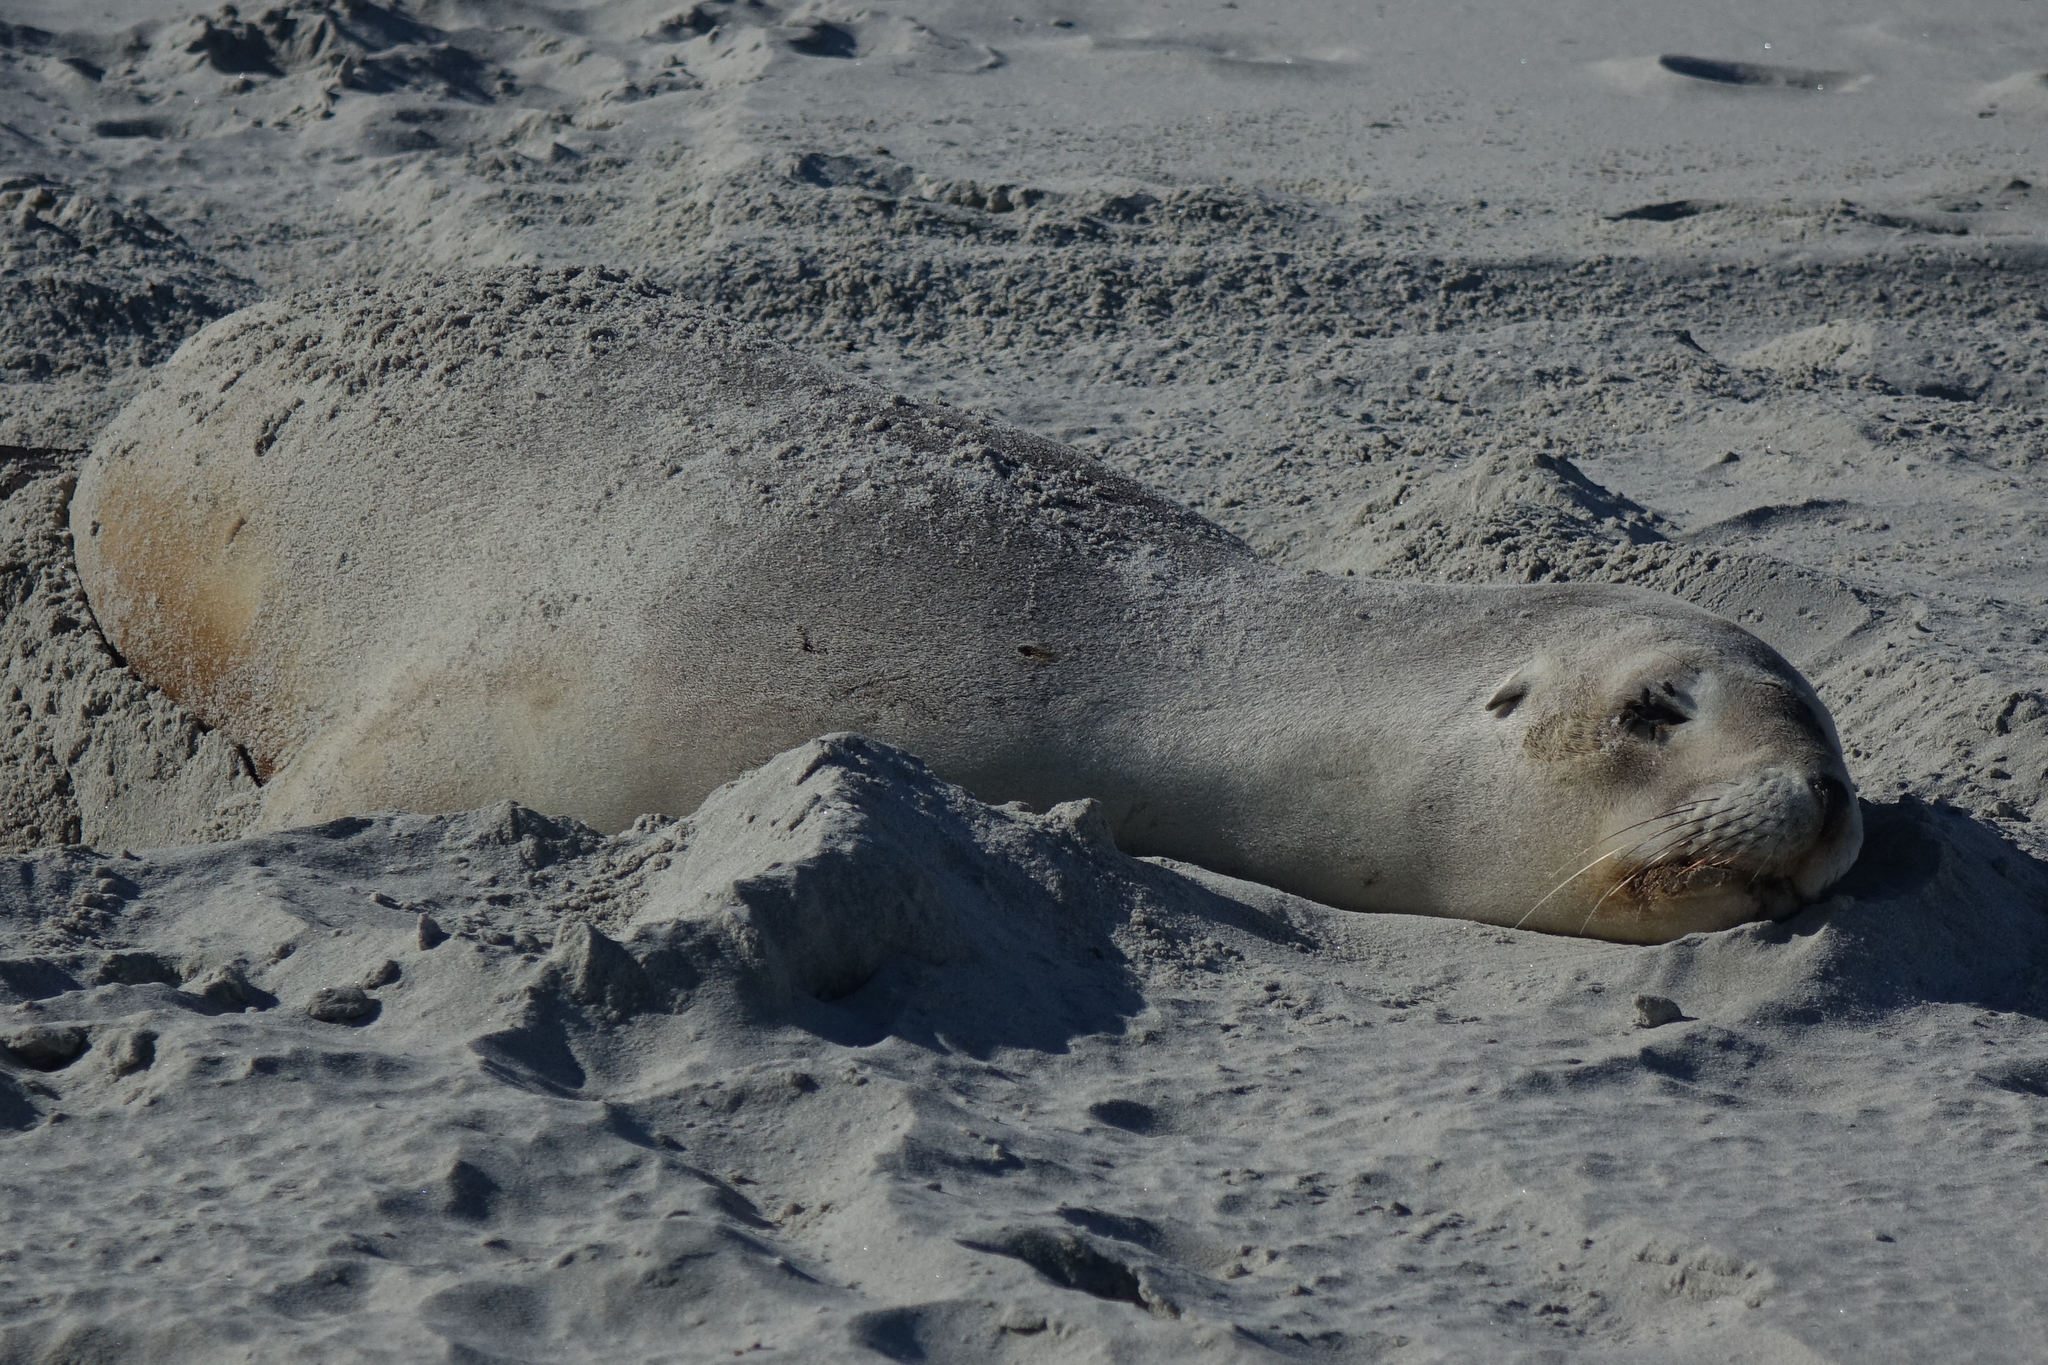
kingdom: Animalia
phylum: Chordata
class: Mammalia
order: Carnivora
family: Otariidae
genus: Phocarctos
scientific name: Phocarctos hookeri
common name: New zealand sea lion
